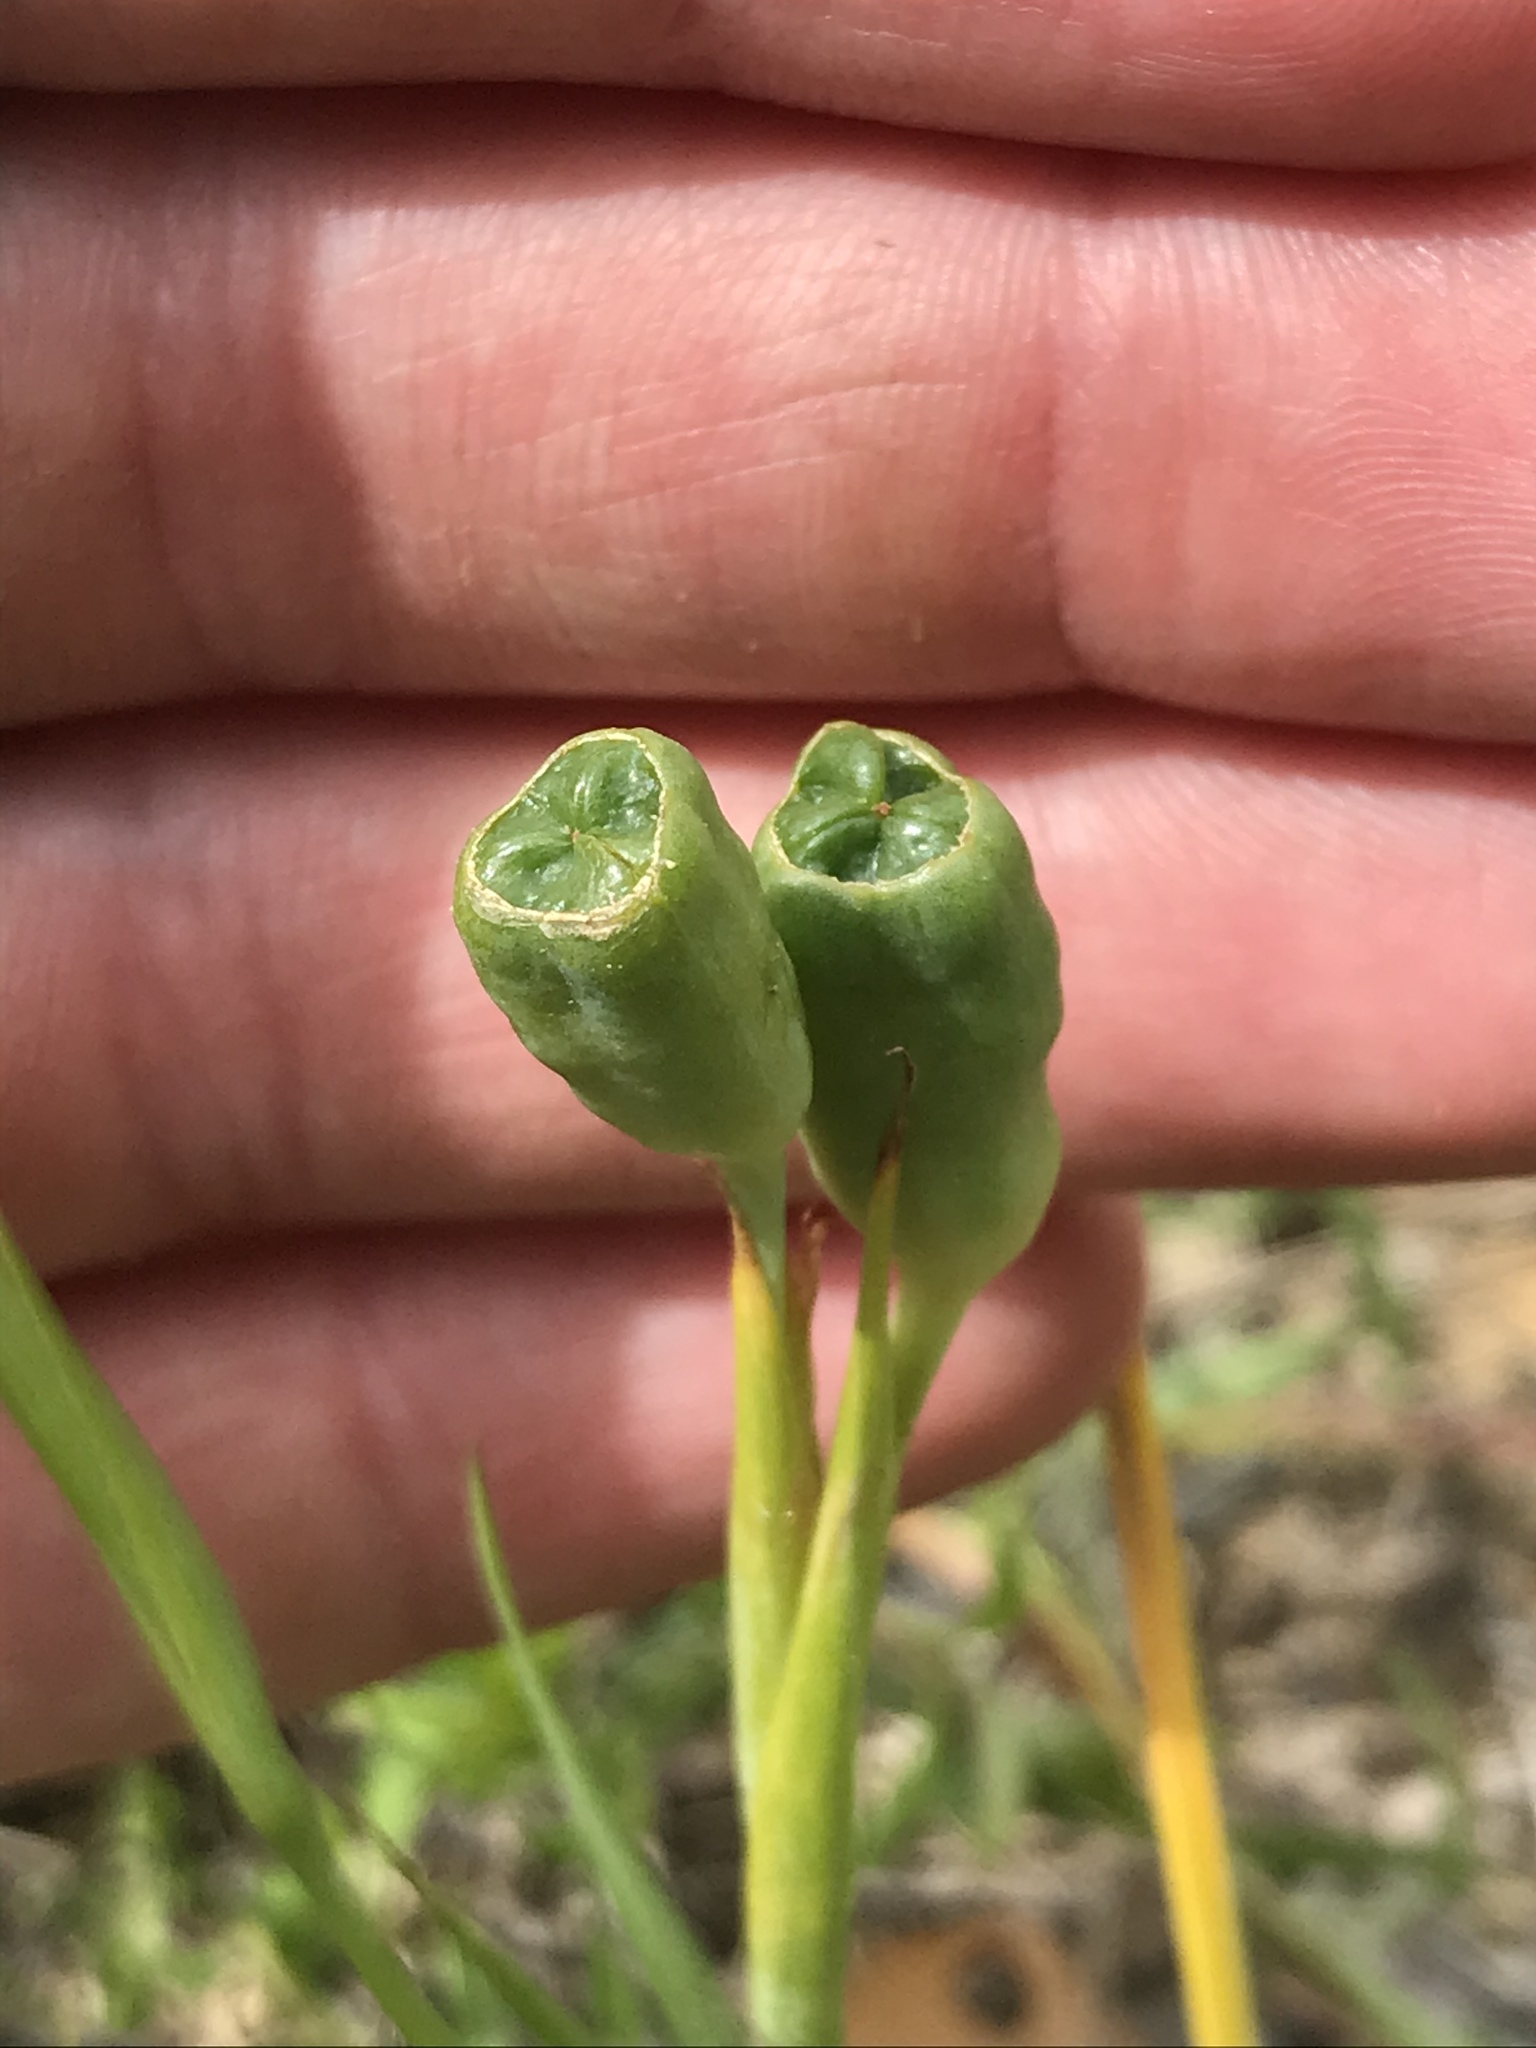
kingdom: Plantae
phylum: Tracheophyta
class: Liliopsida
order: Asparagales
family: Iridaceae
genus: Nemastylis
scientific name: Nemastylis geminiflora
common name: Prairie celestial
